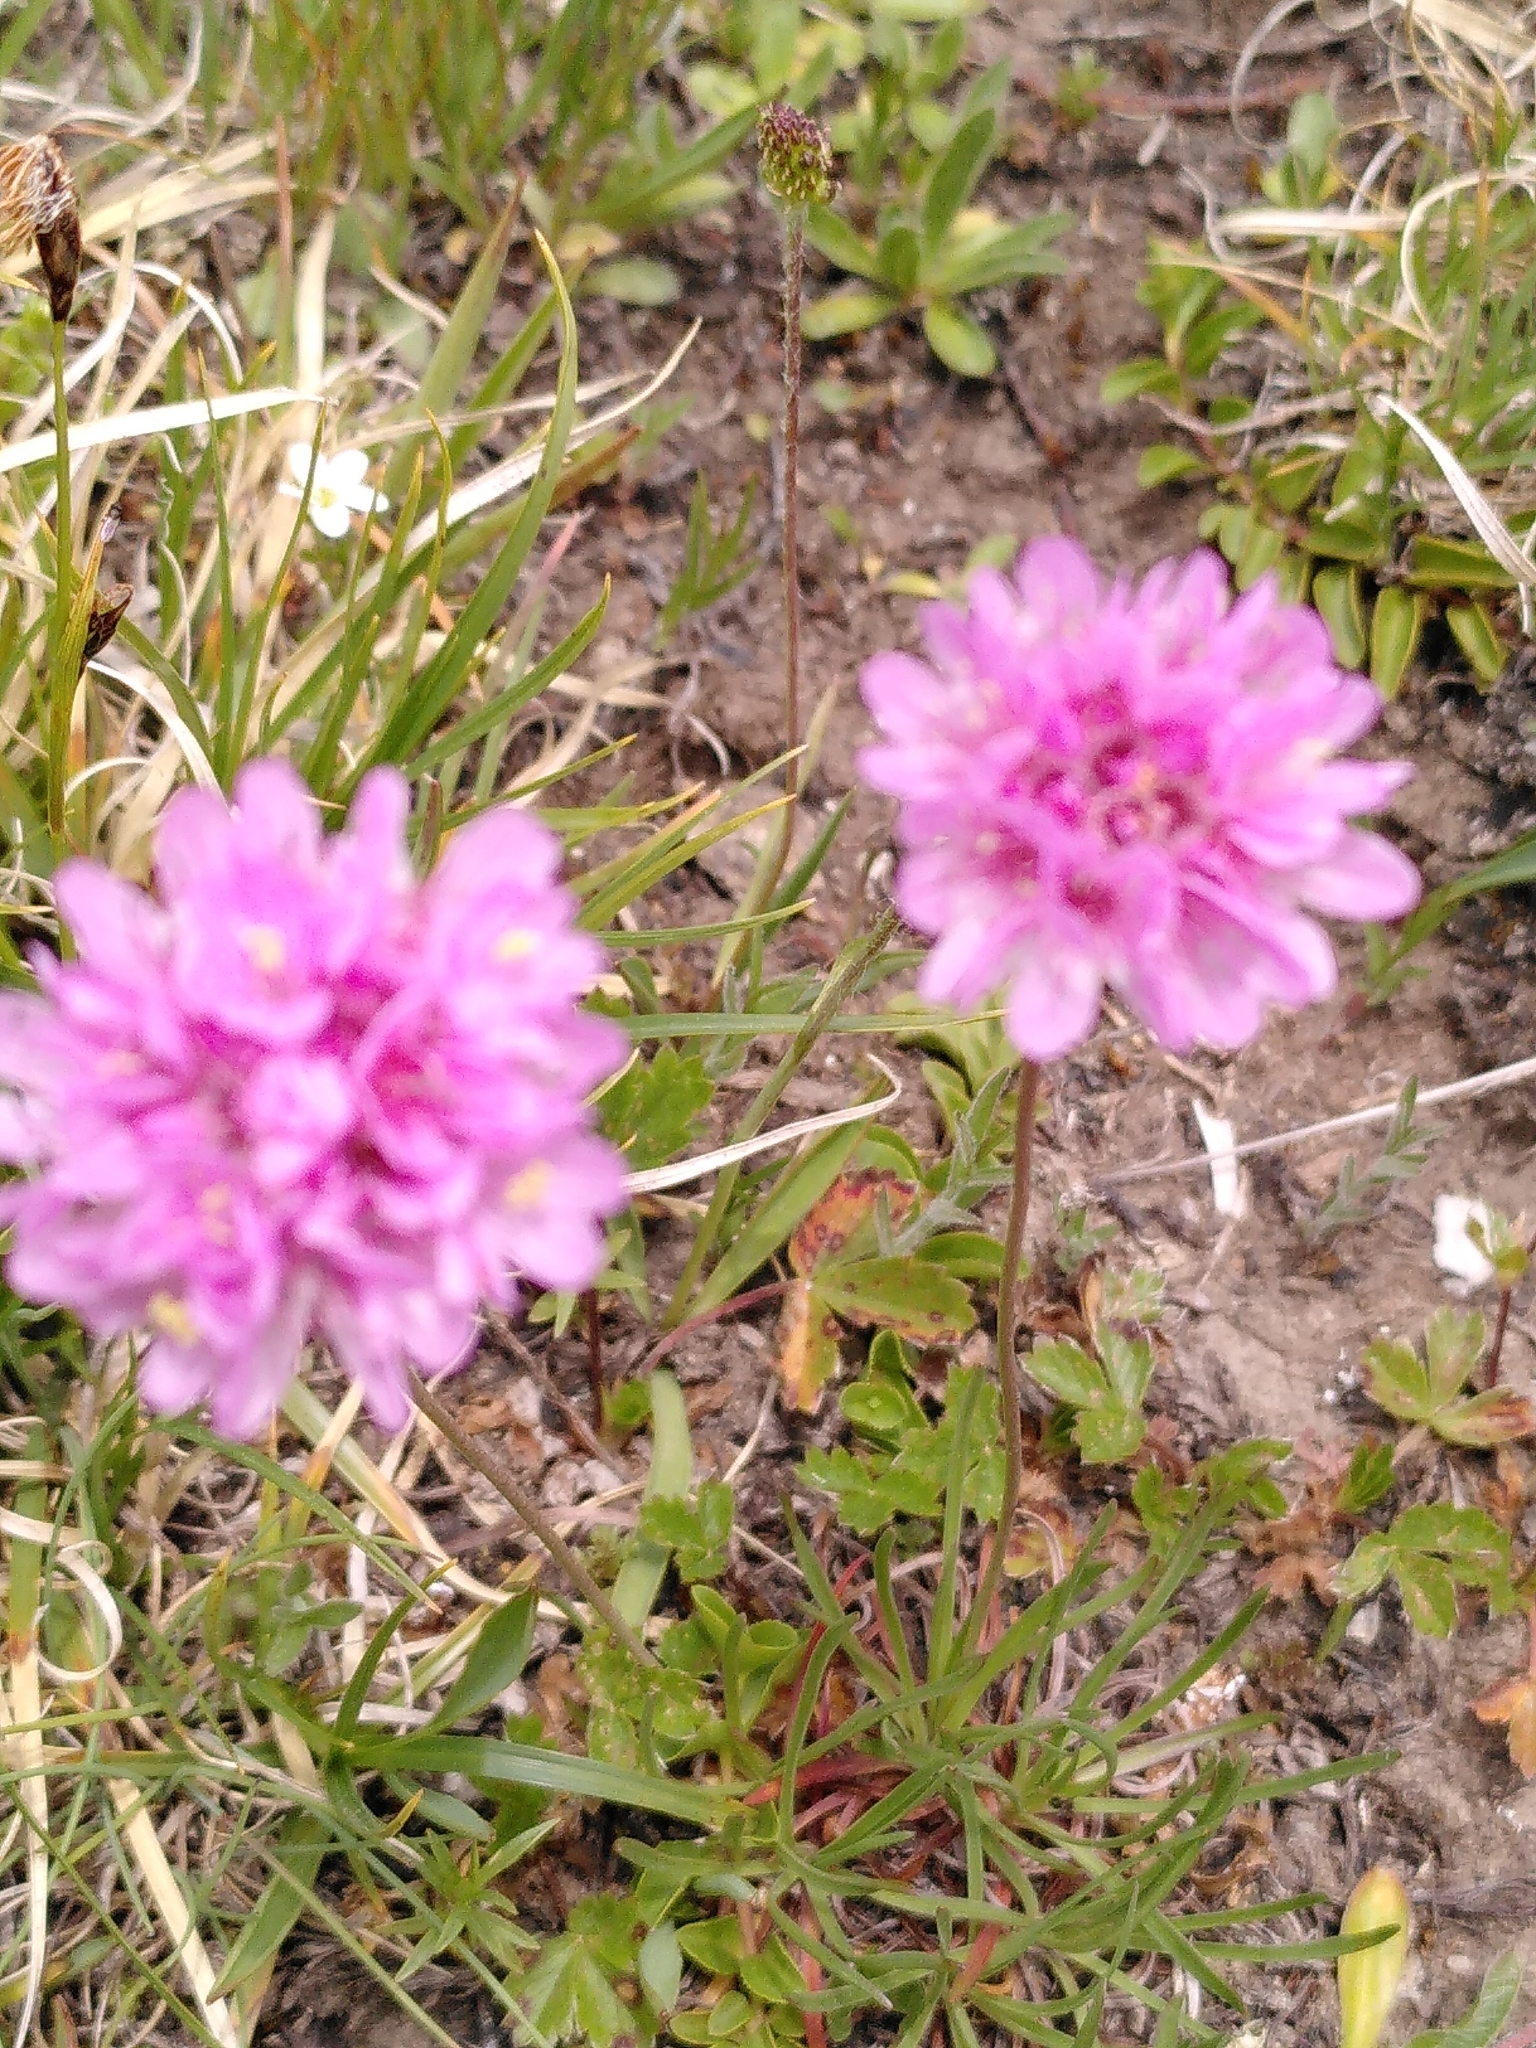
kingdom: Plantae
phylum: Tracheophyta
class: Magnoliopsida
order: Caryophyllales
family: Plumbaginaceae
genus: Armeria
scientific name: Armeria alpina
